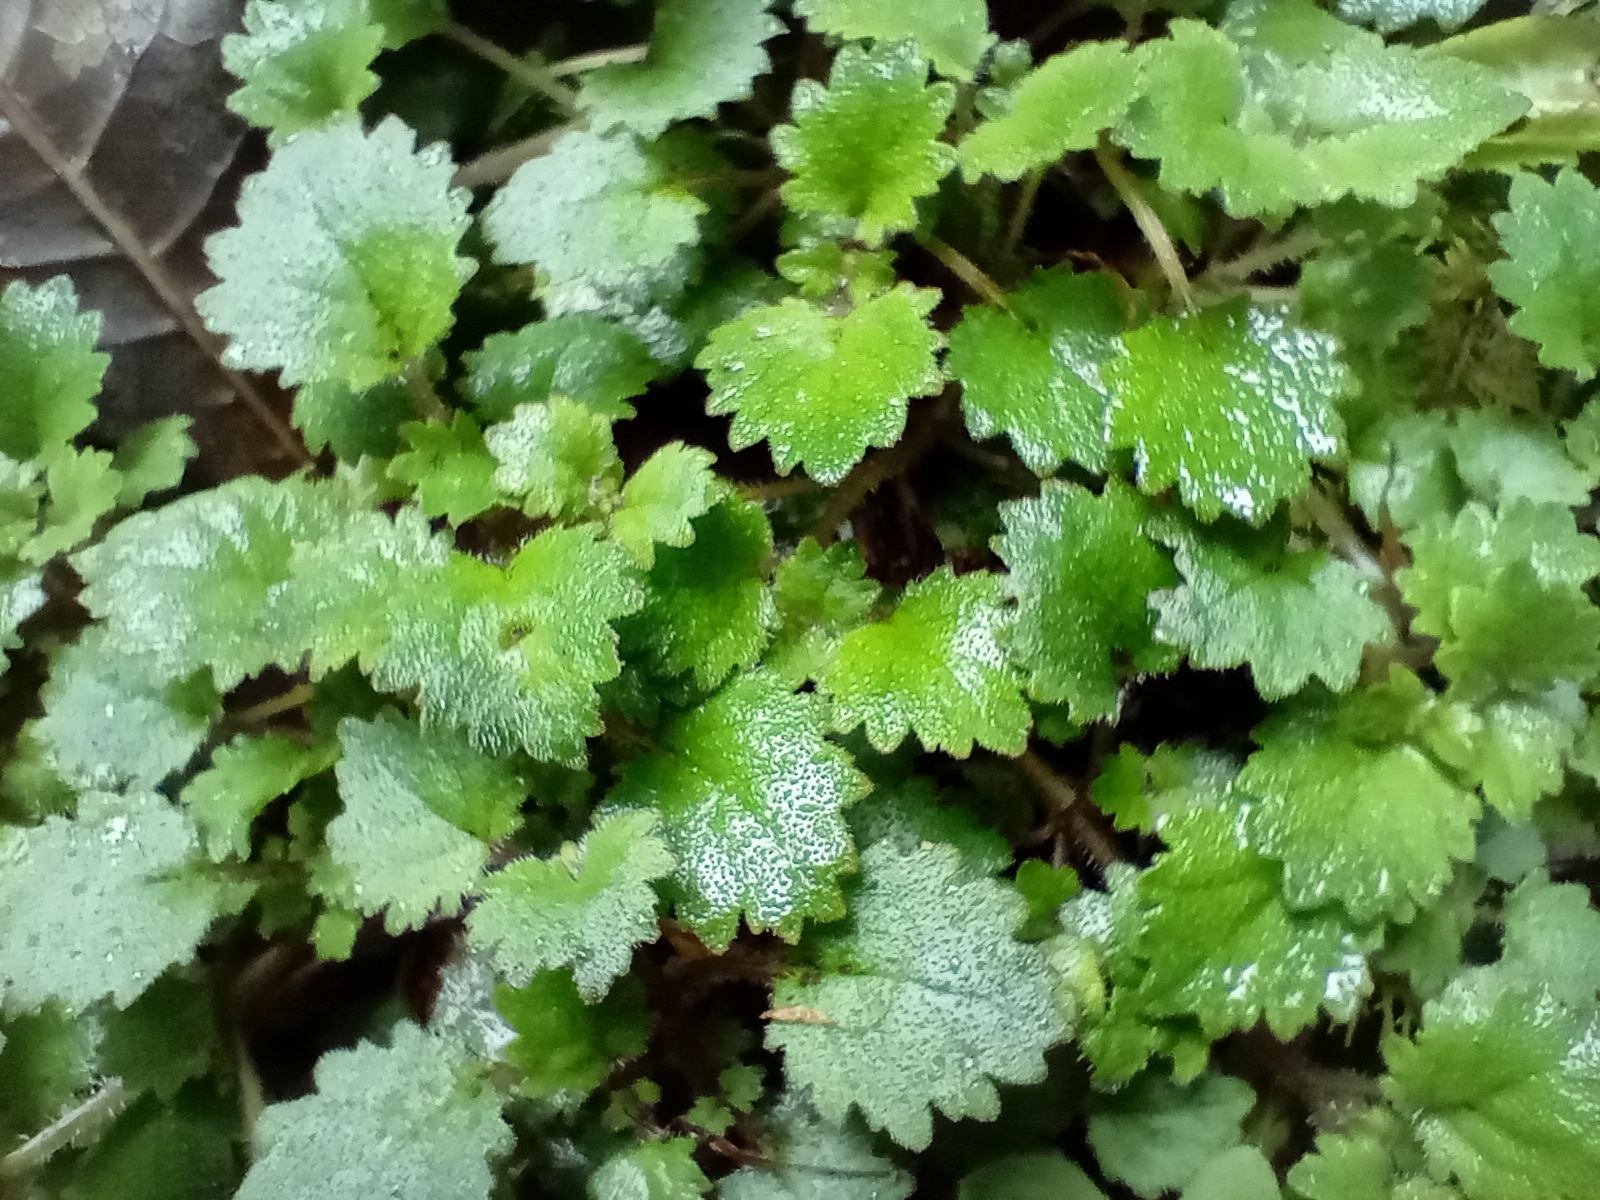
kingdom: Plantae
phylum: Tracheophyta
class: Magnoliopsida
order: Lamiales
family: Calceolariaceae
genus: Jovellana
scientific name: Jovellana repens
